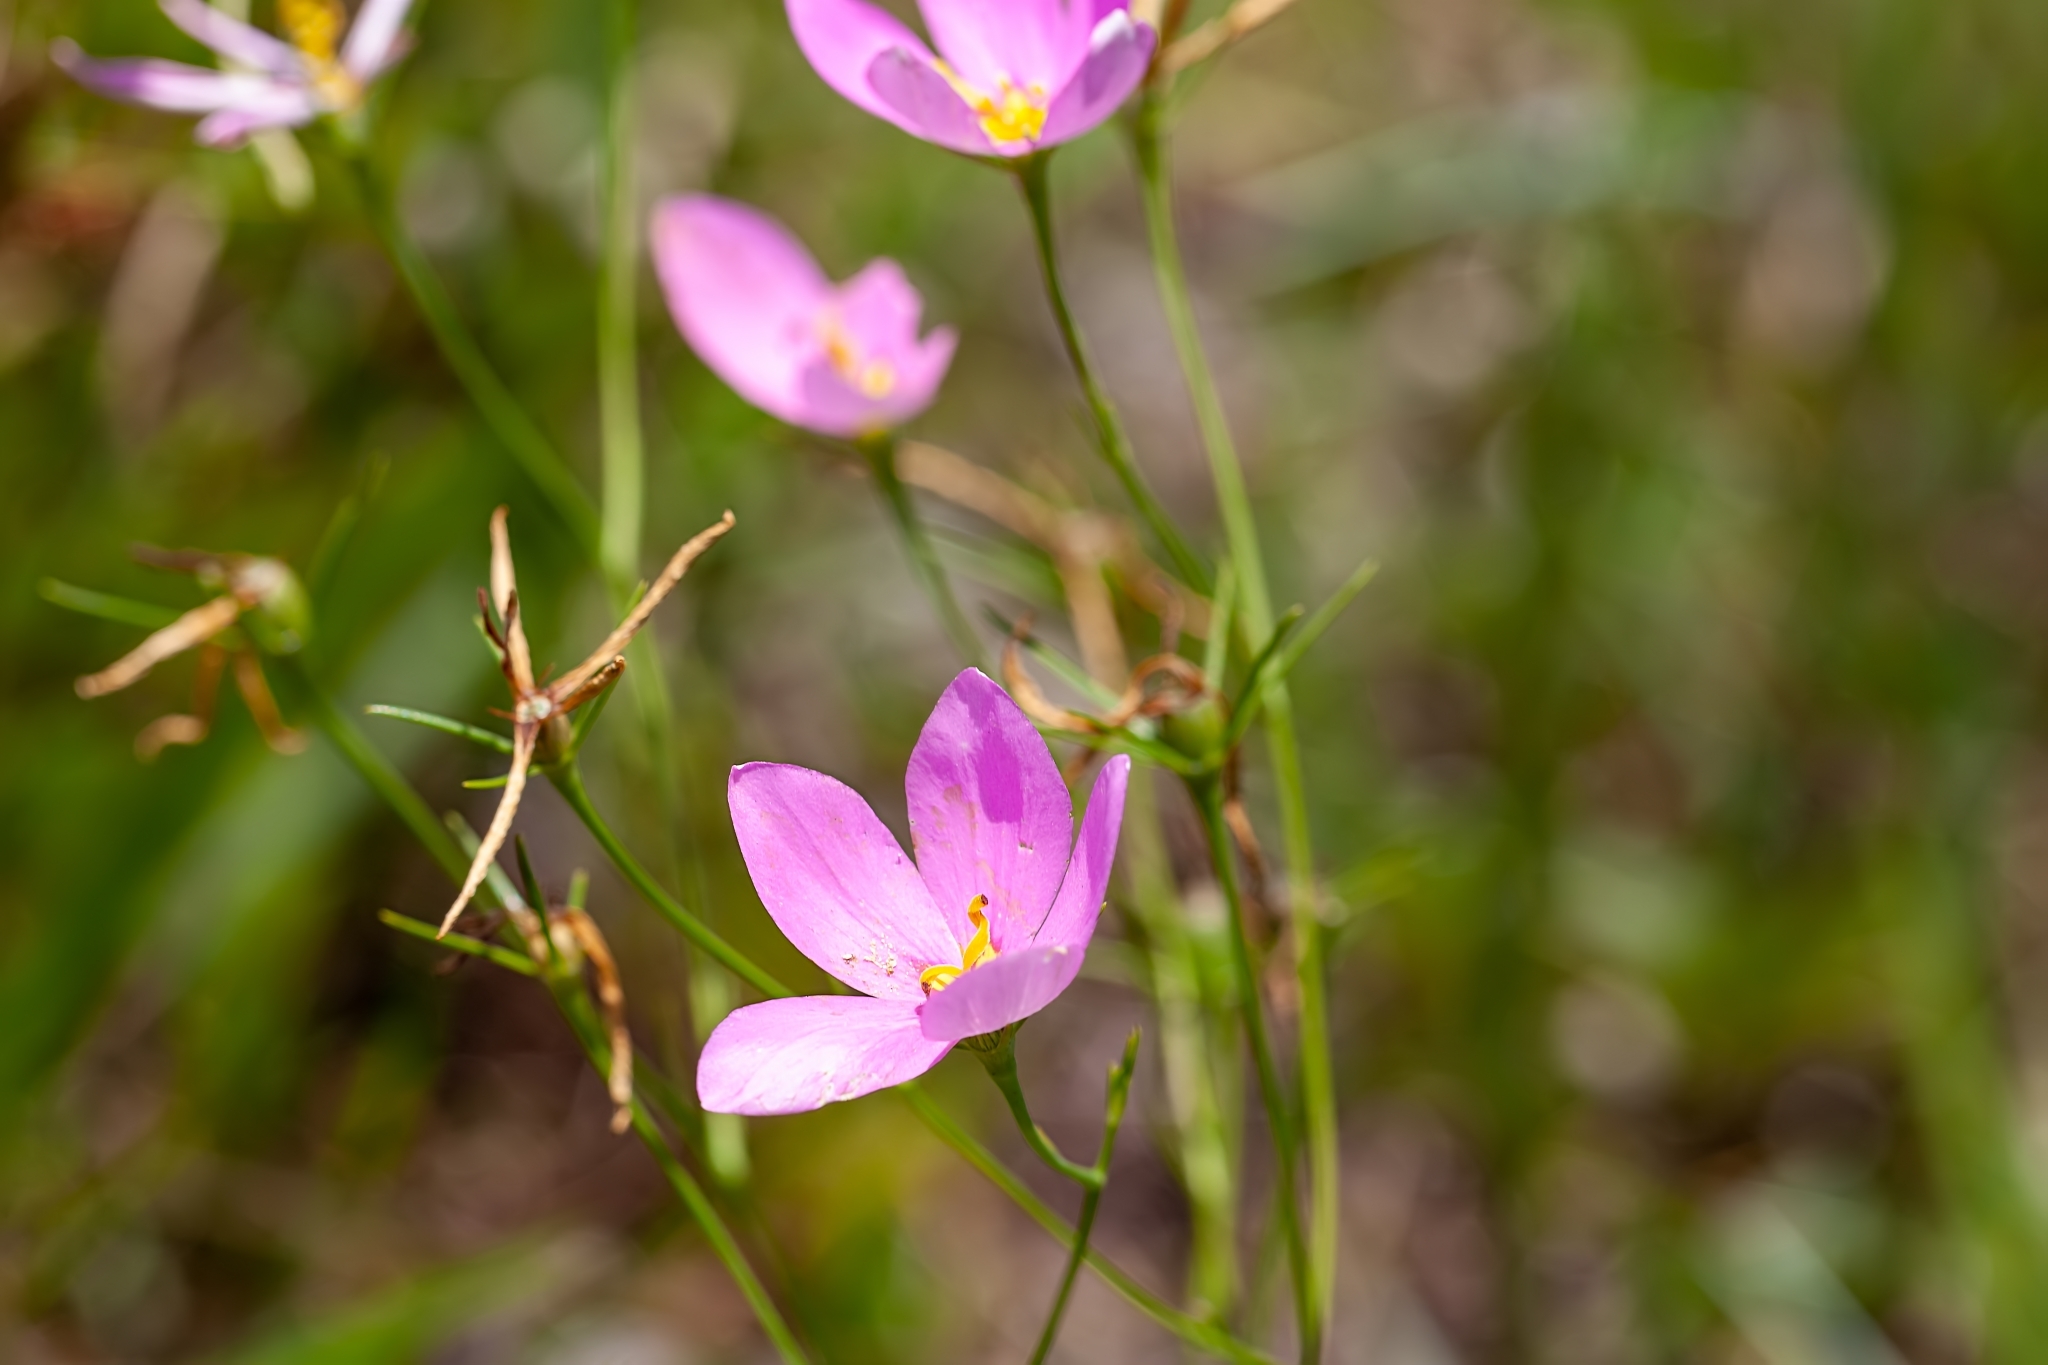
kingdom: Plantae
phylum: Tracheophyta
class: Magnoliopsida
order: Gentianales
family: Gentianaceae
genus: Sabatia
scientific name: Sabatia grandiflora
